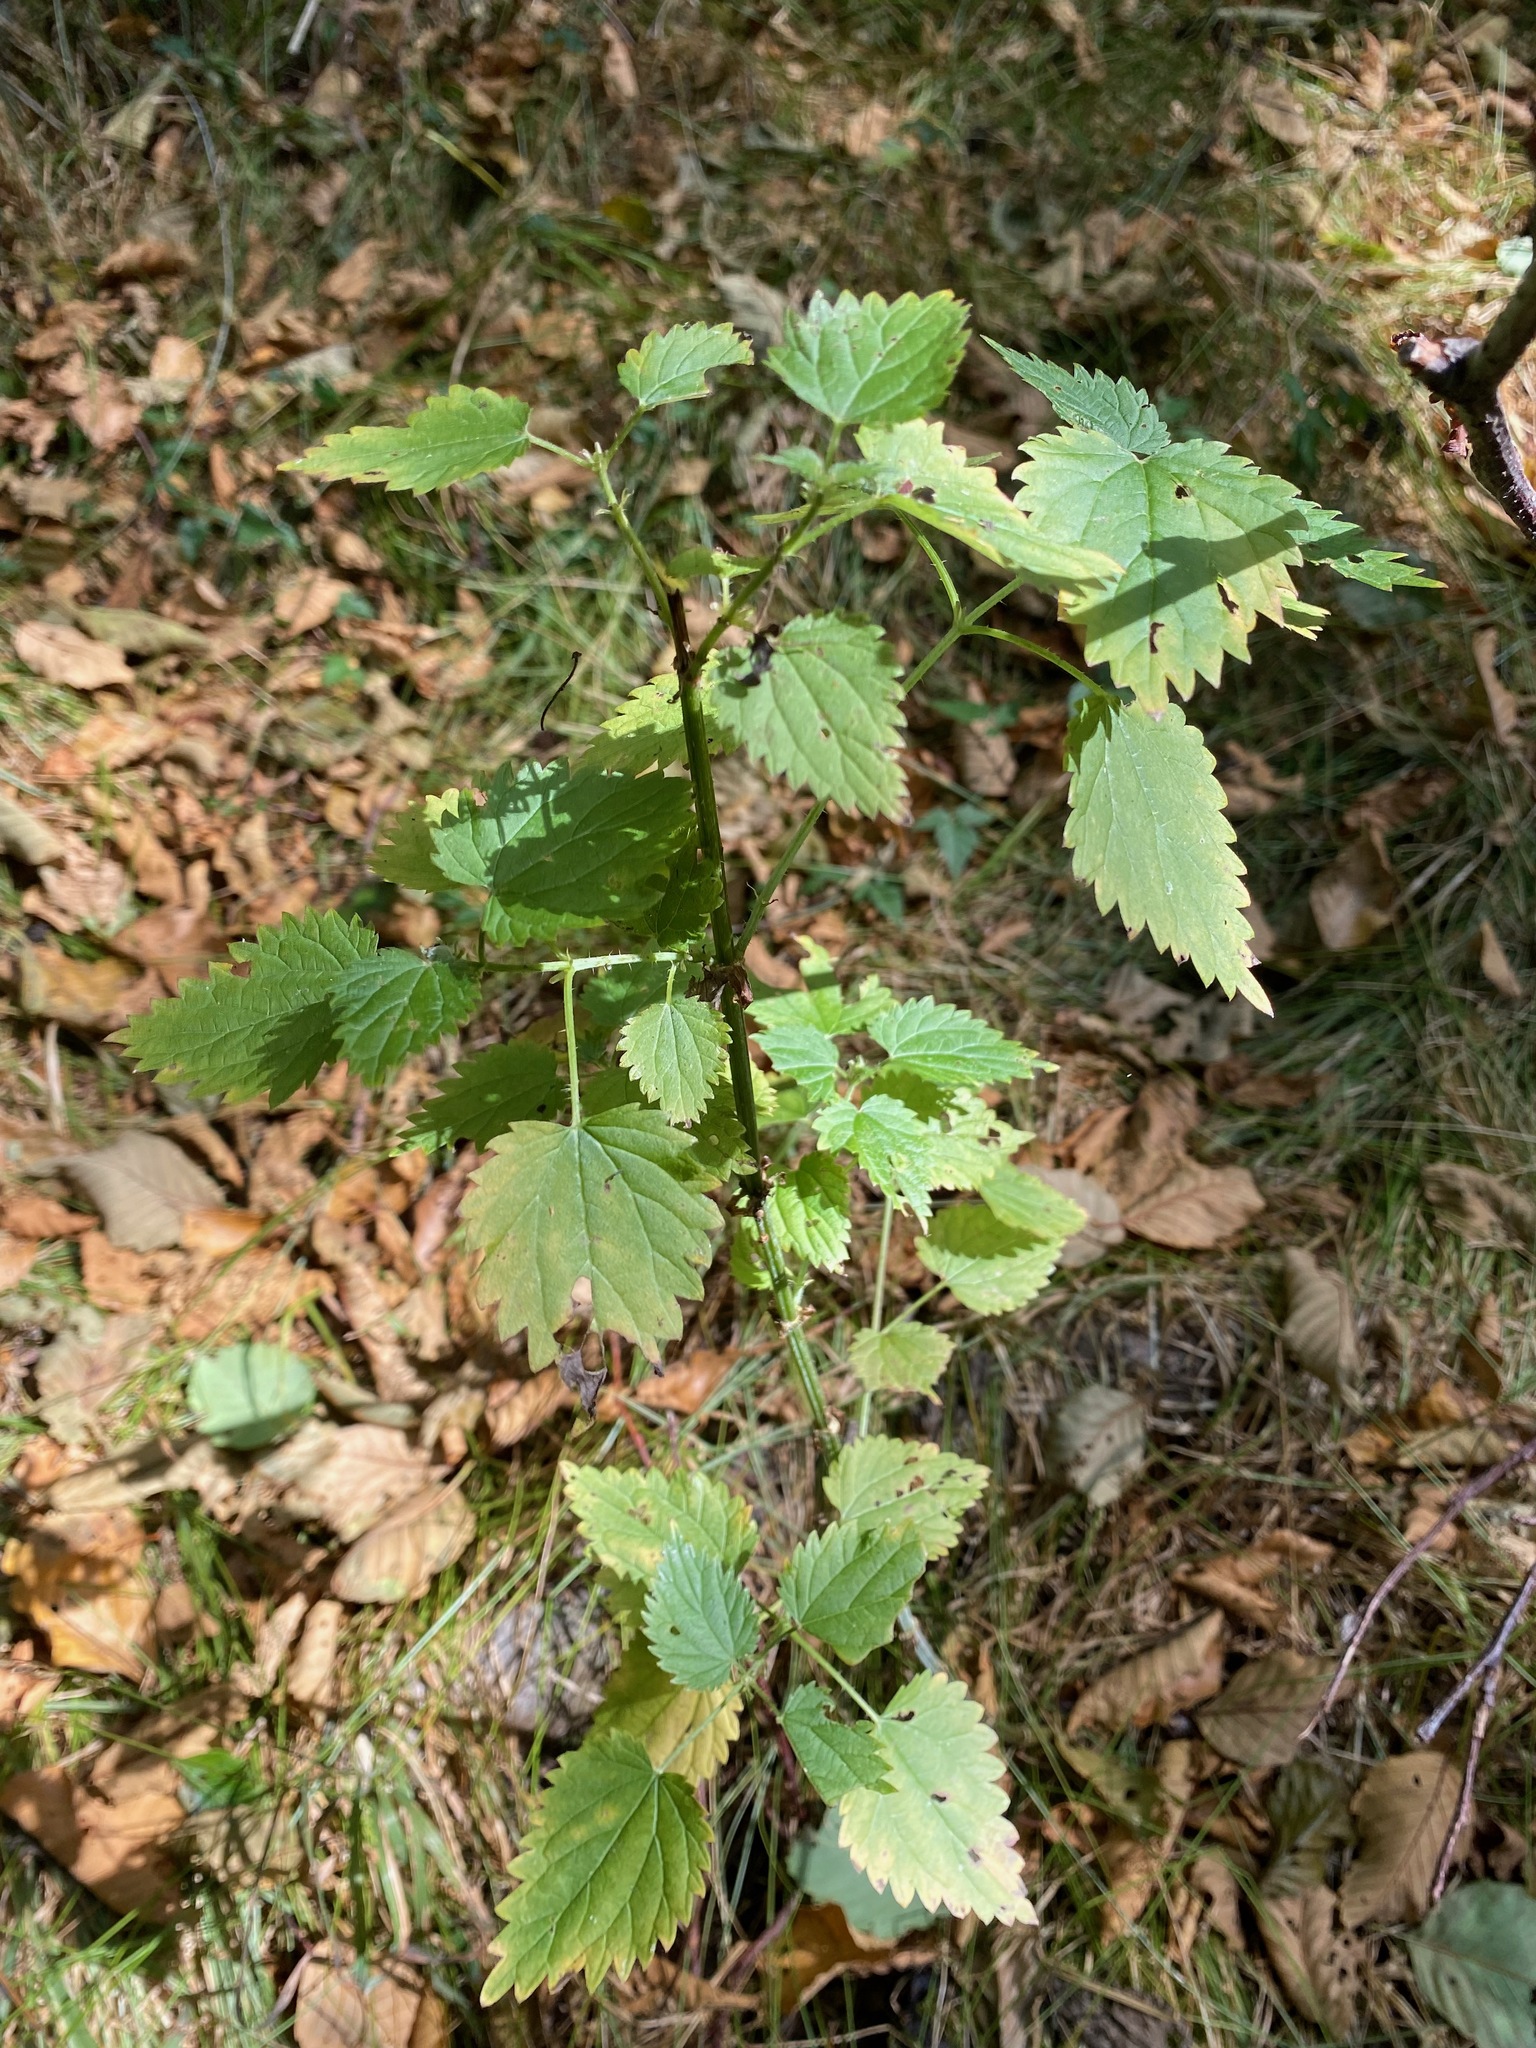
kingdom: Plantae
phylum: Tracheophyta
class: Magnoliopsida
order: Rosales
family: Urticaceae
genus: Urtica
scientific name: Urtica dioica
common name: Common nettle
